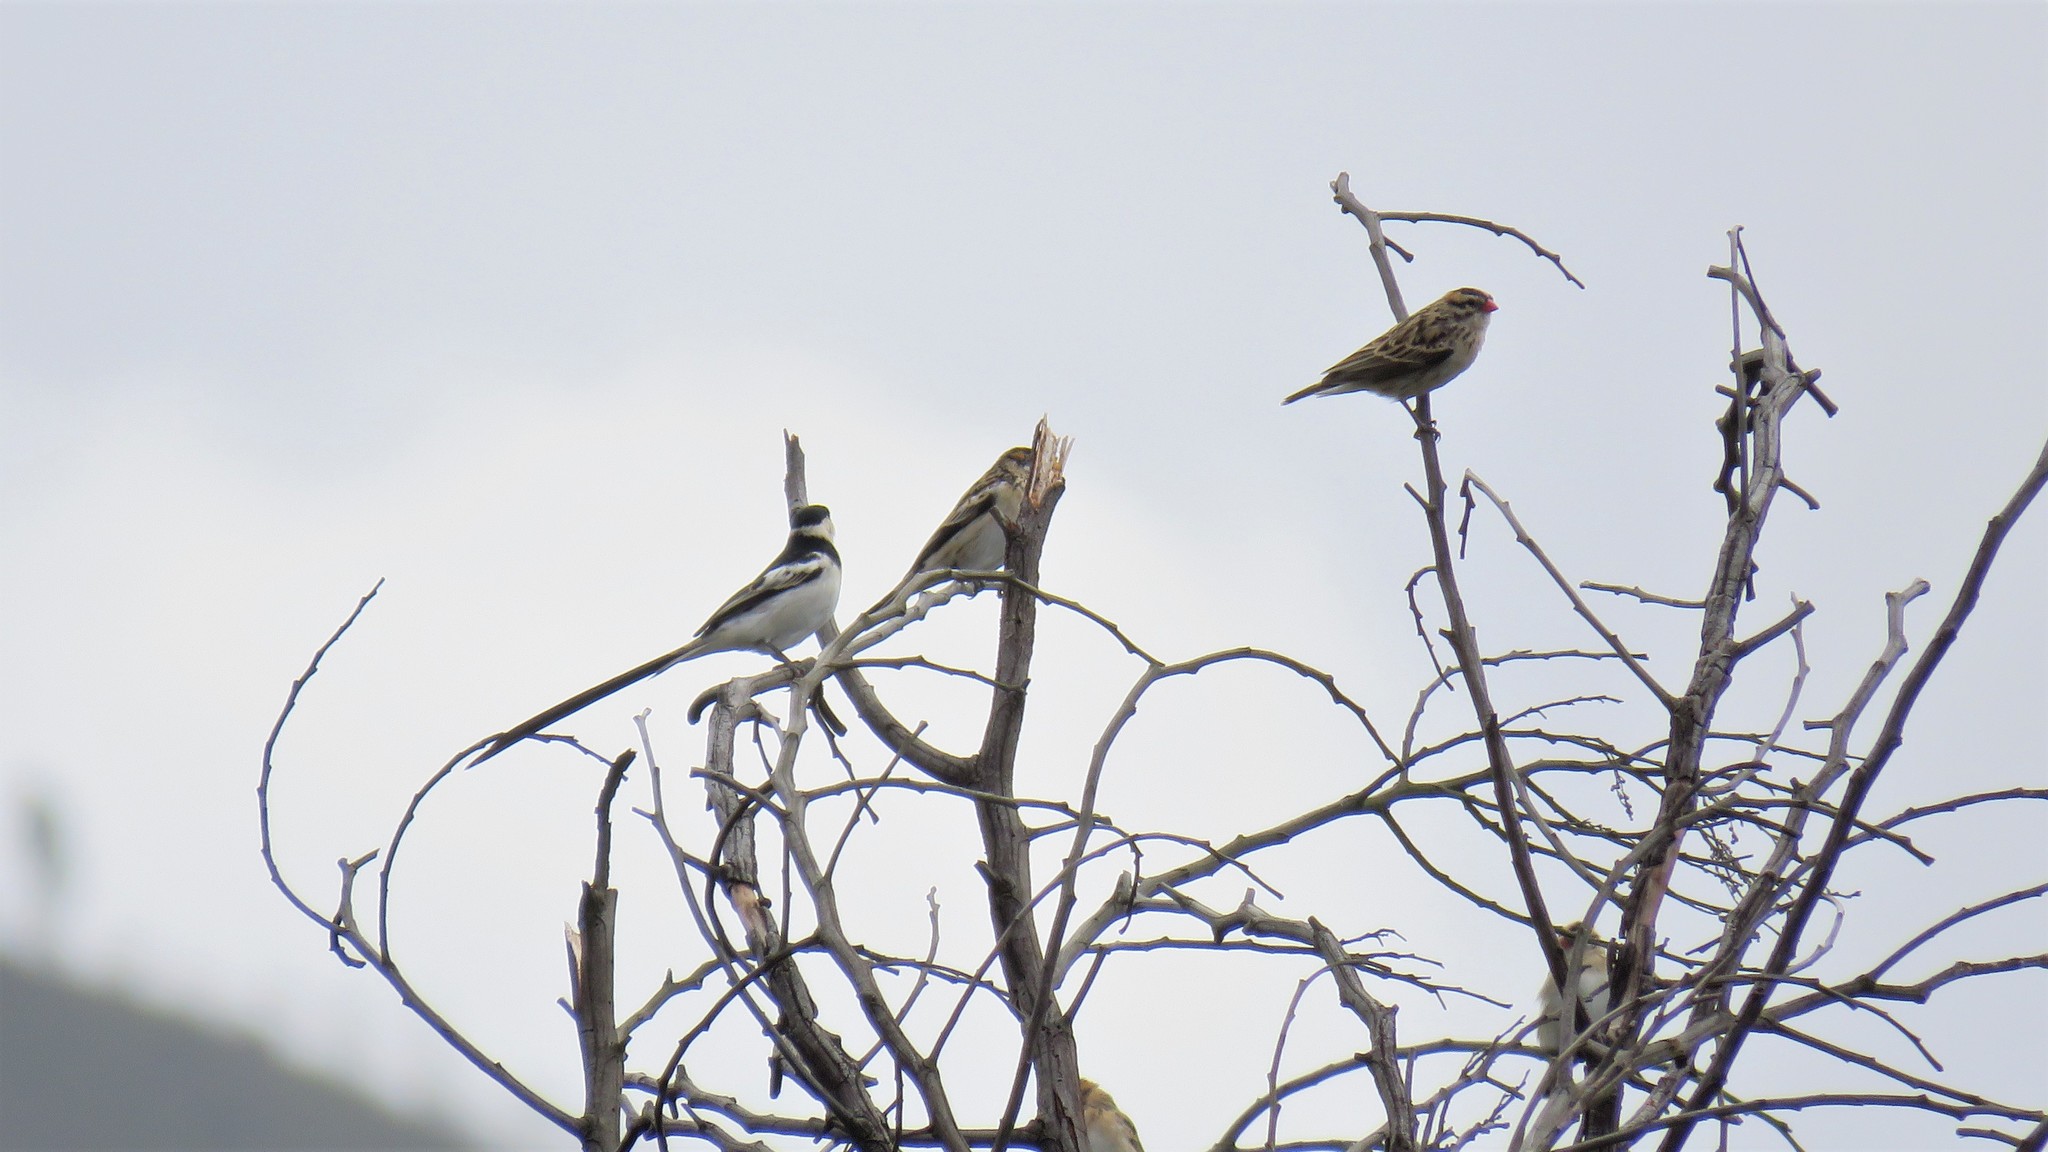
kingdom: Animalia
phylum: Chordata
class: Aves
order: Passeriformes
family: Viduidae
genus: Vidua
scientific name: Vidua macroura
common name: Pin-tailed whydah
